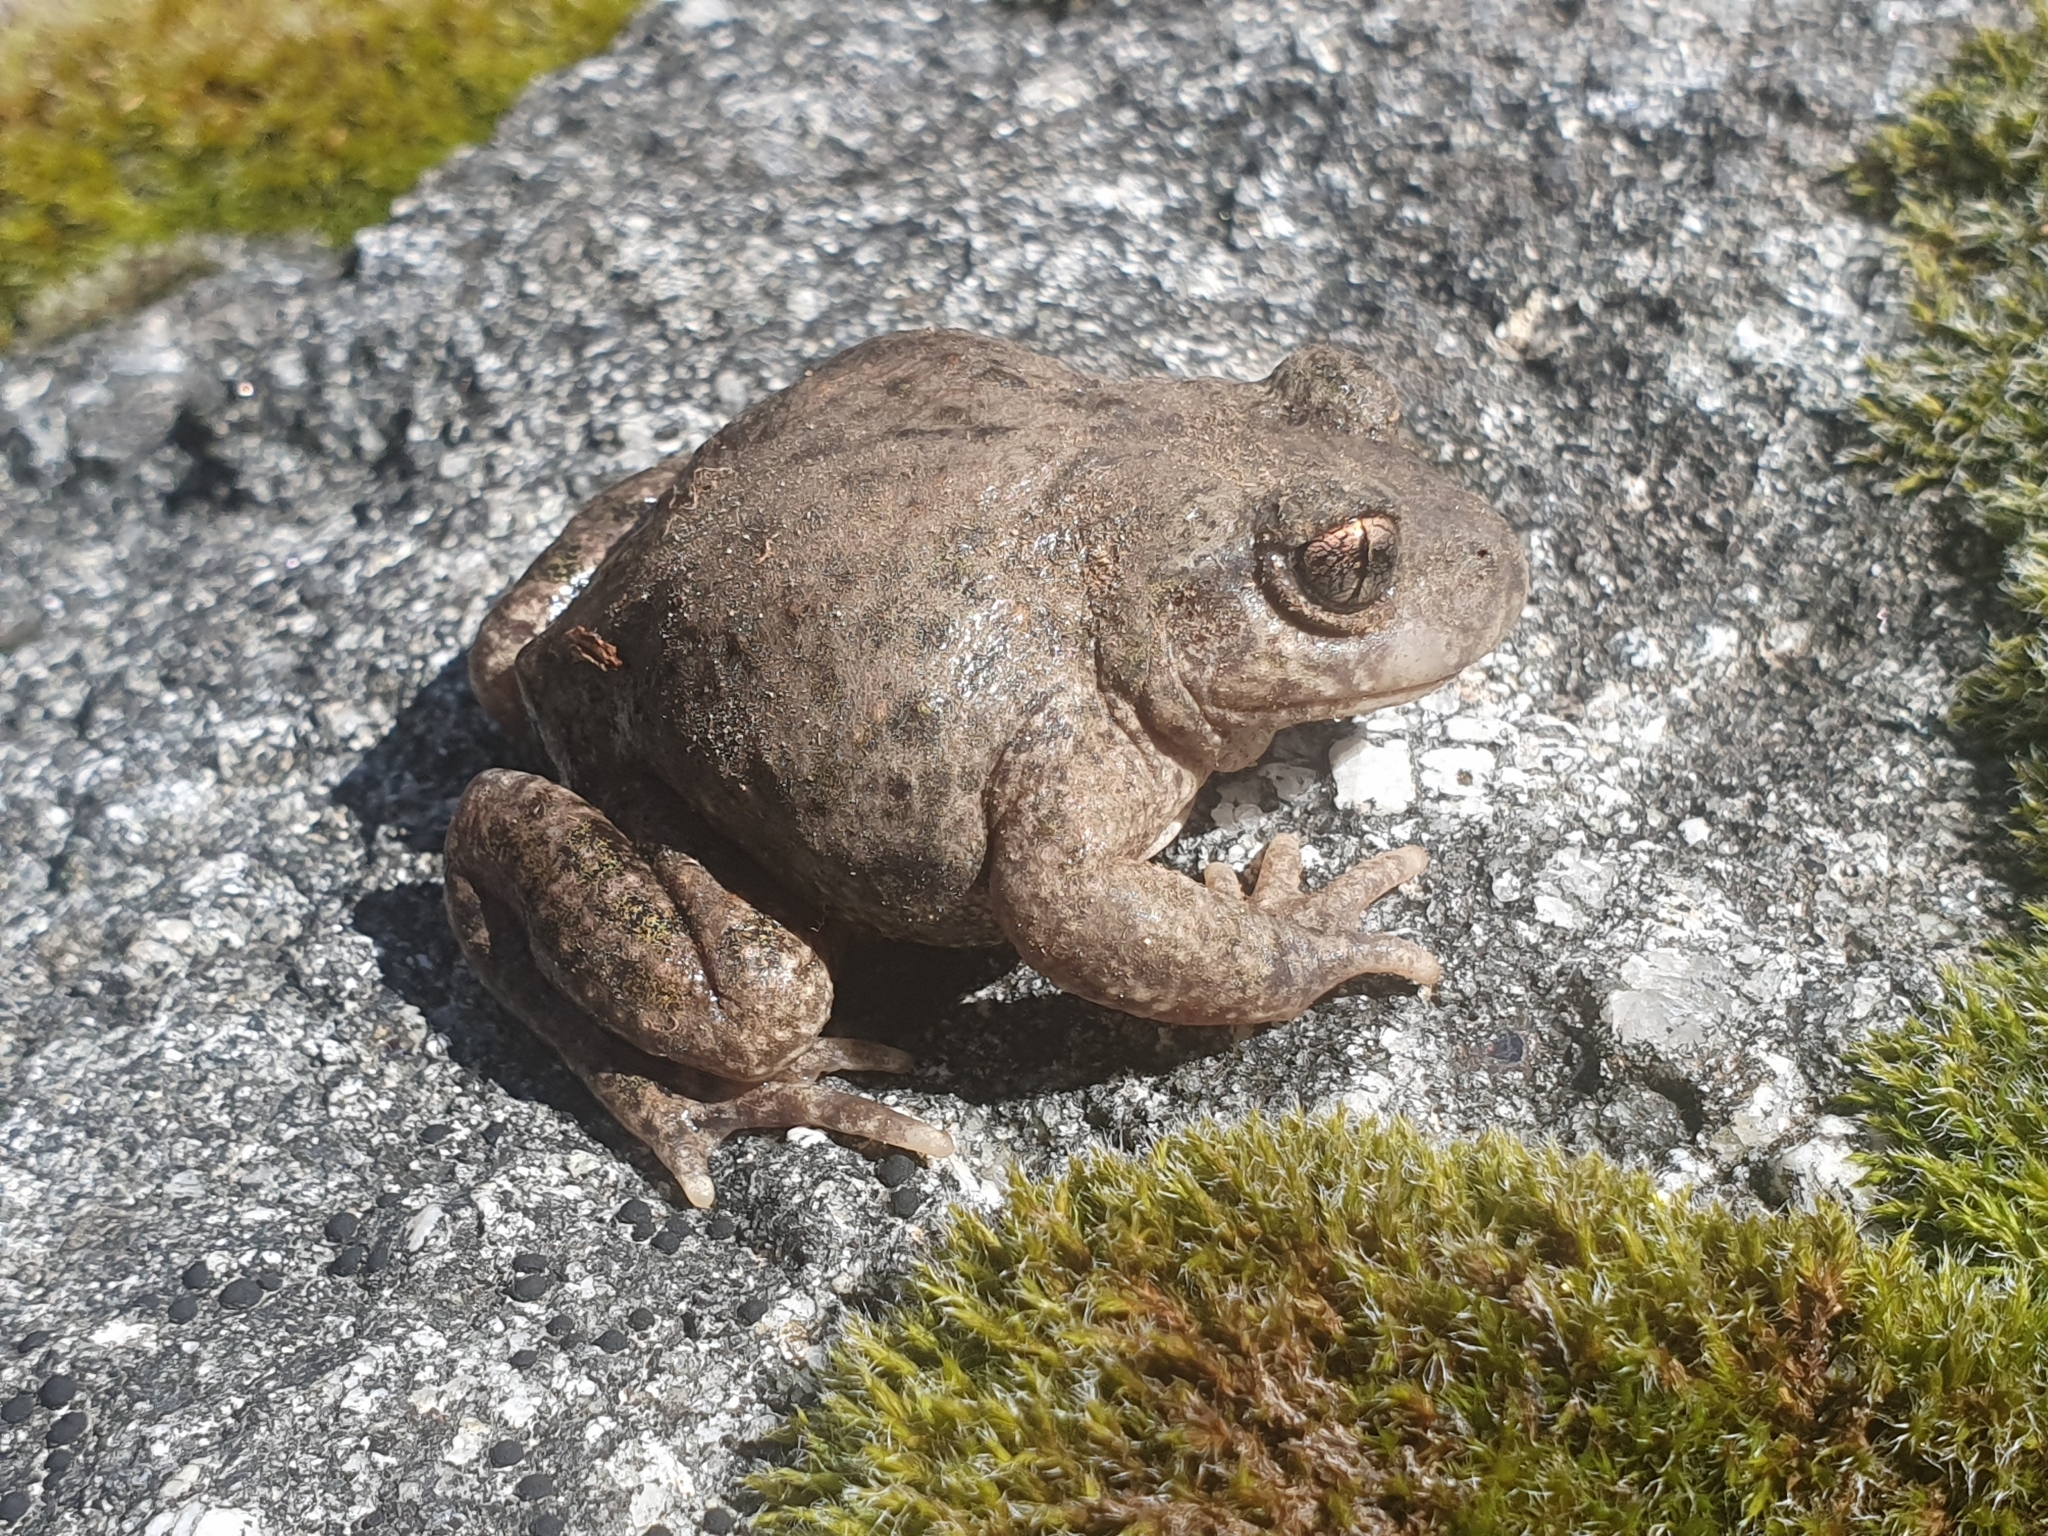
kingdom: Animalia
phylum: Chordata
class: Amphibia
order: Anura
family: Alytidae
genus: Alytes
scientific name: Alytes obstetricans
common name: Midwife toad
